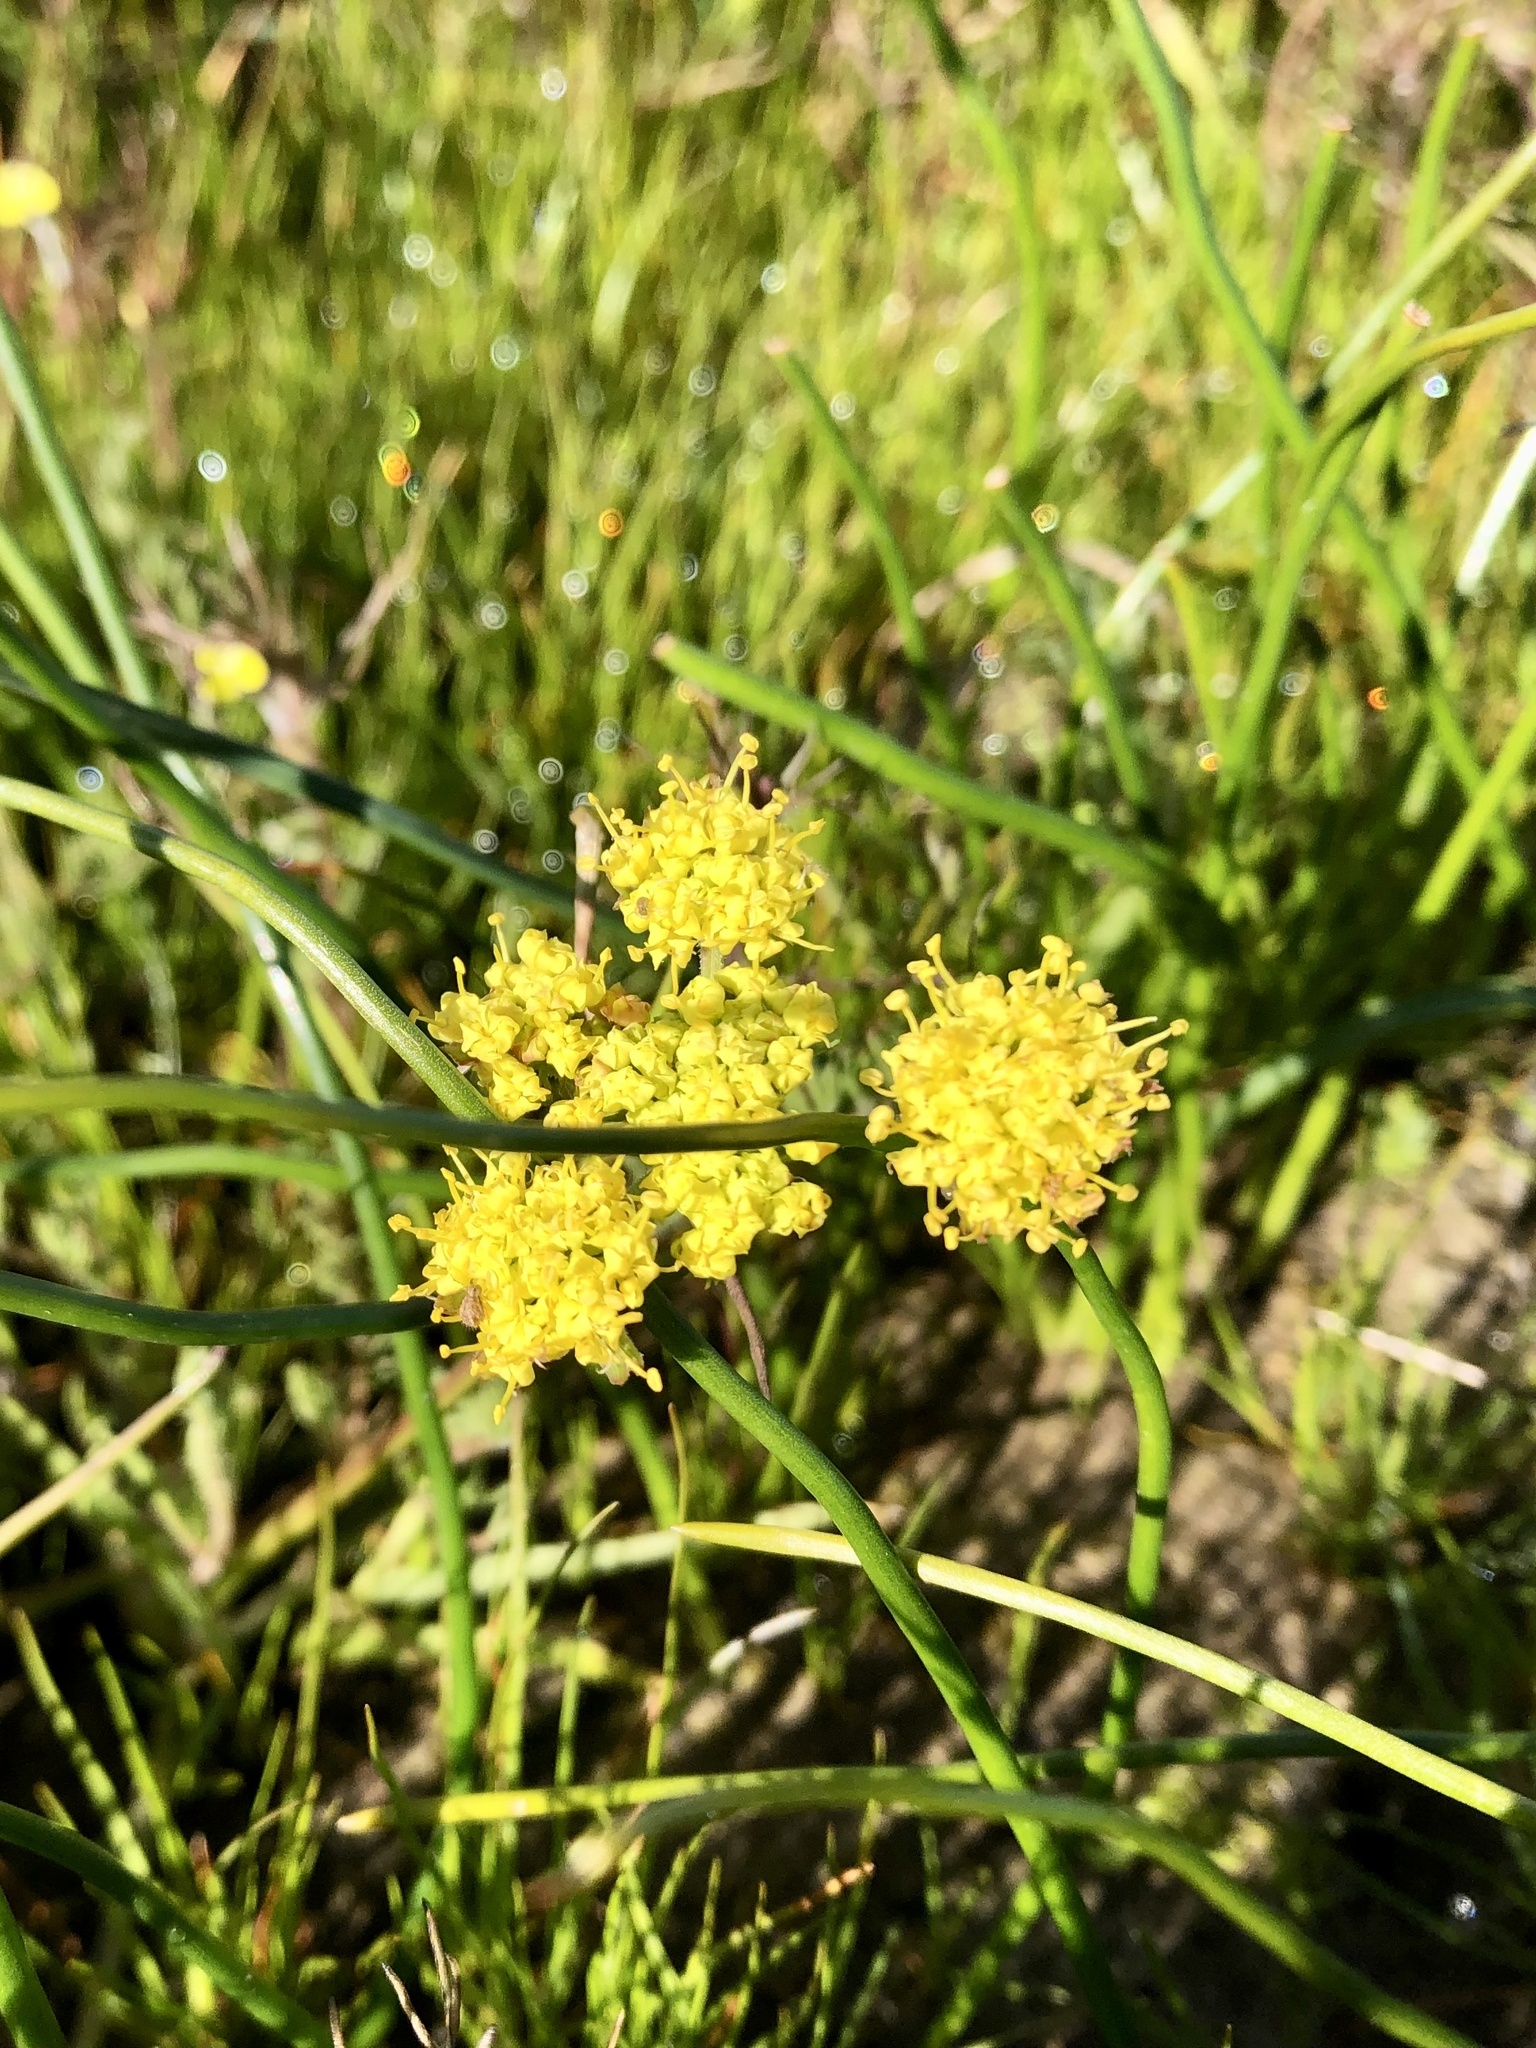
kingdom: Plantae
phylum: Tracheophyta
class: Magnoliopsida
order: Apiales
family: Apiaceae
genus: Lomatium
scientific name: Lomatium caruifolium
